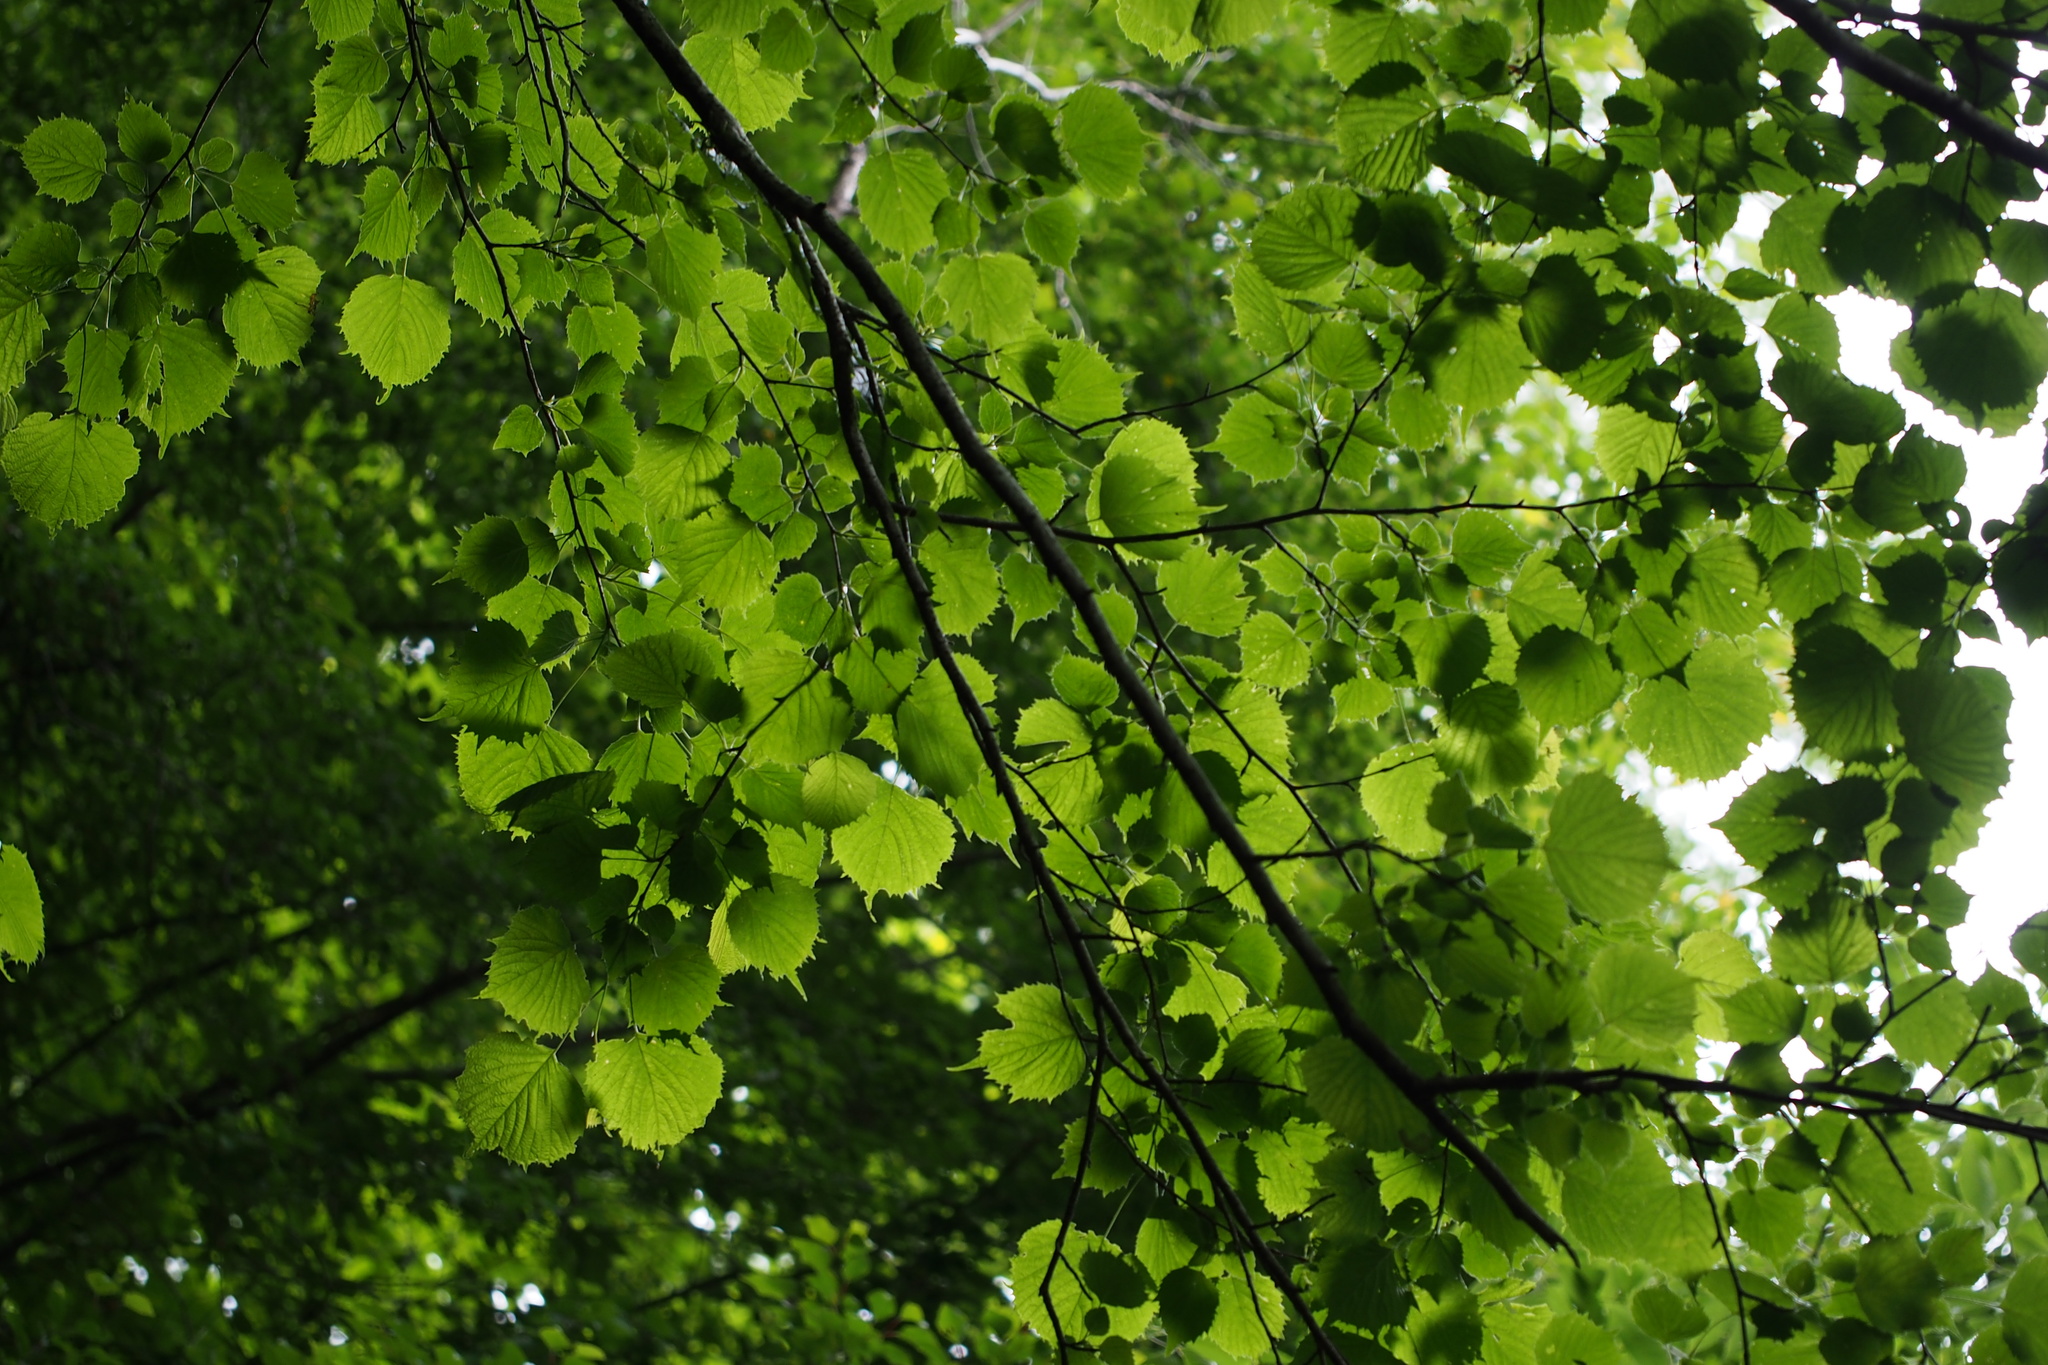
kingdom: Plantae
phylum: Tracheophyta
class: Magnoliopsida
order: Ranunculales
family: Eupteleaceae
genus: Euptelea
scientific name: Euptelea polyandra
